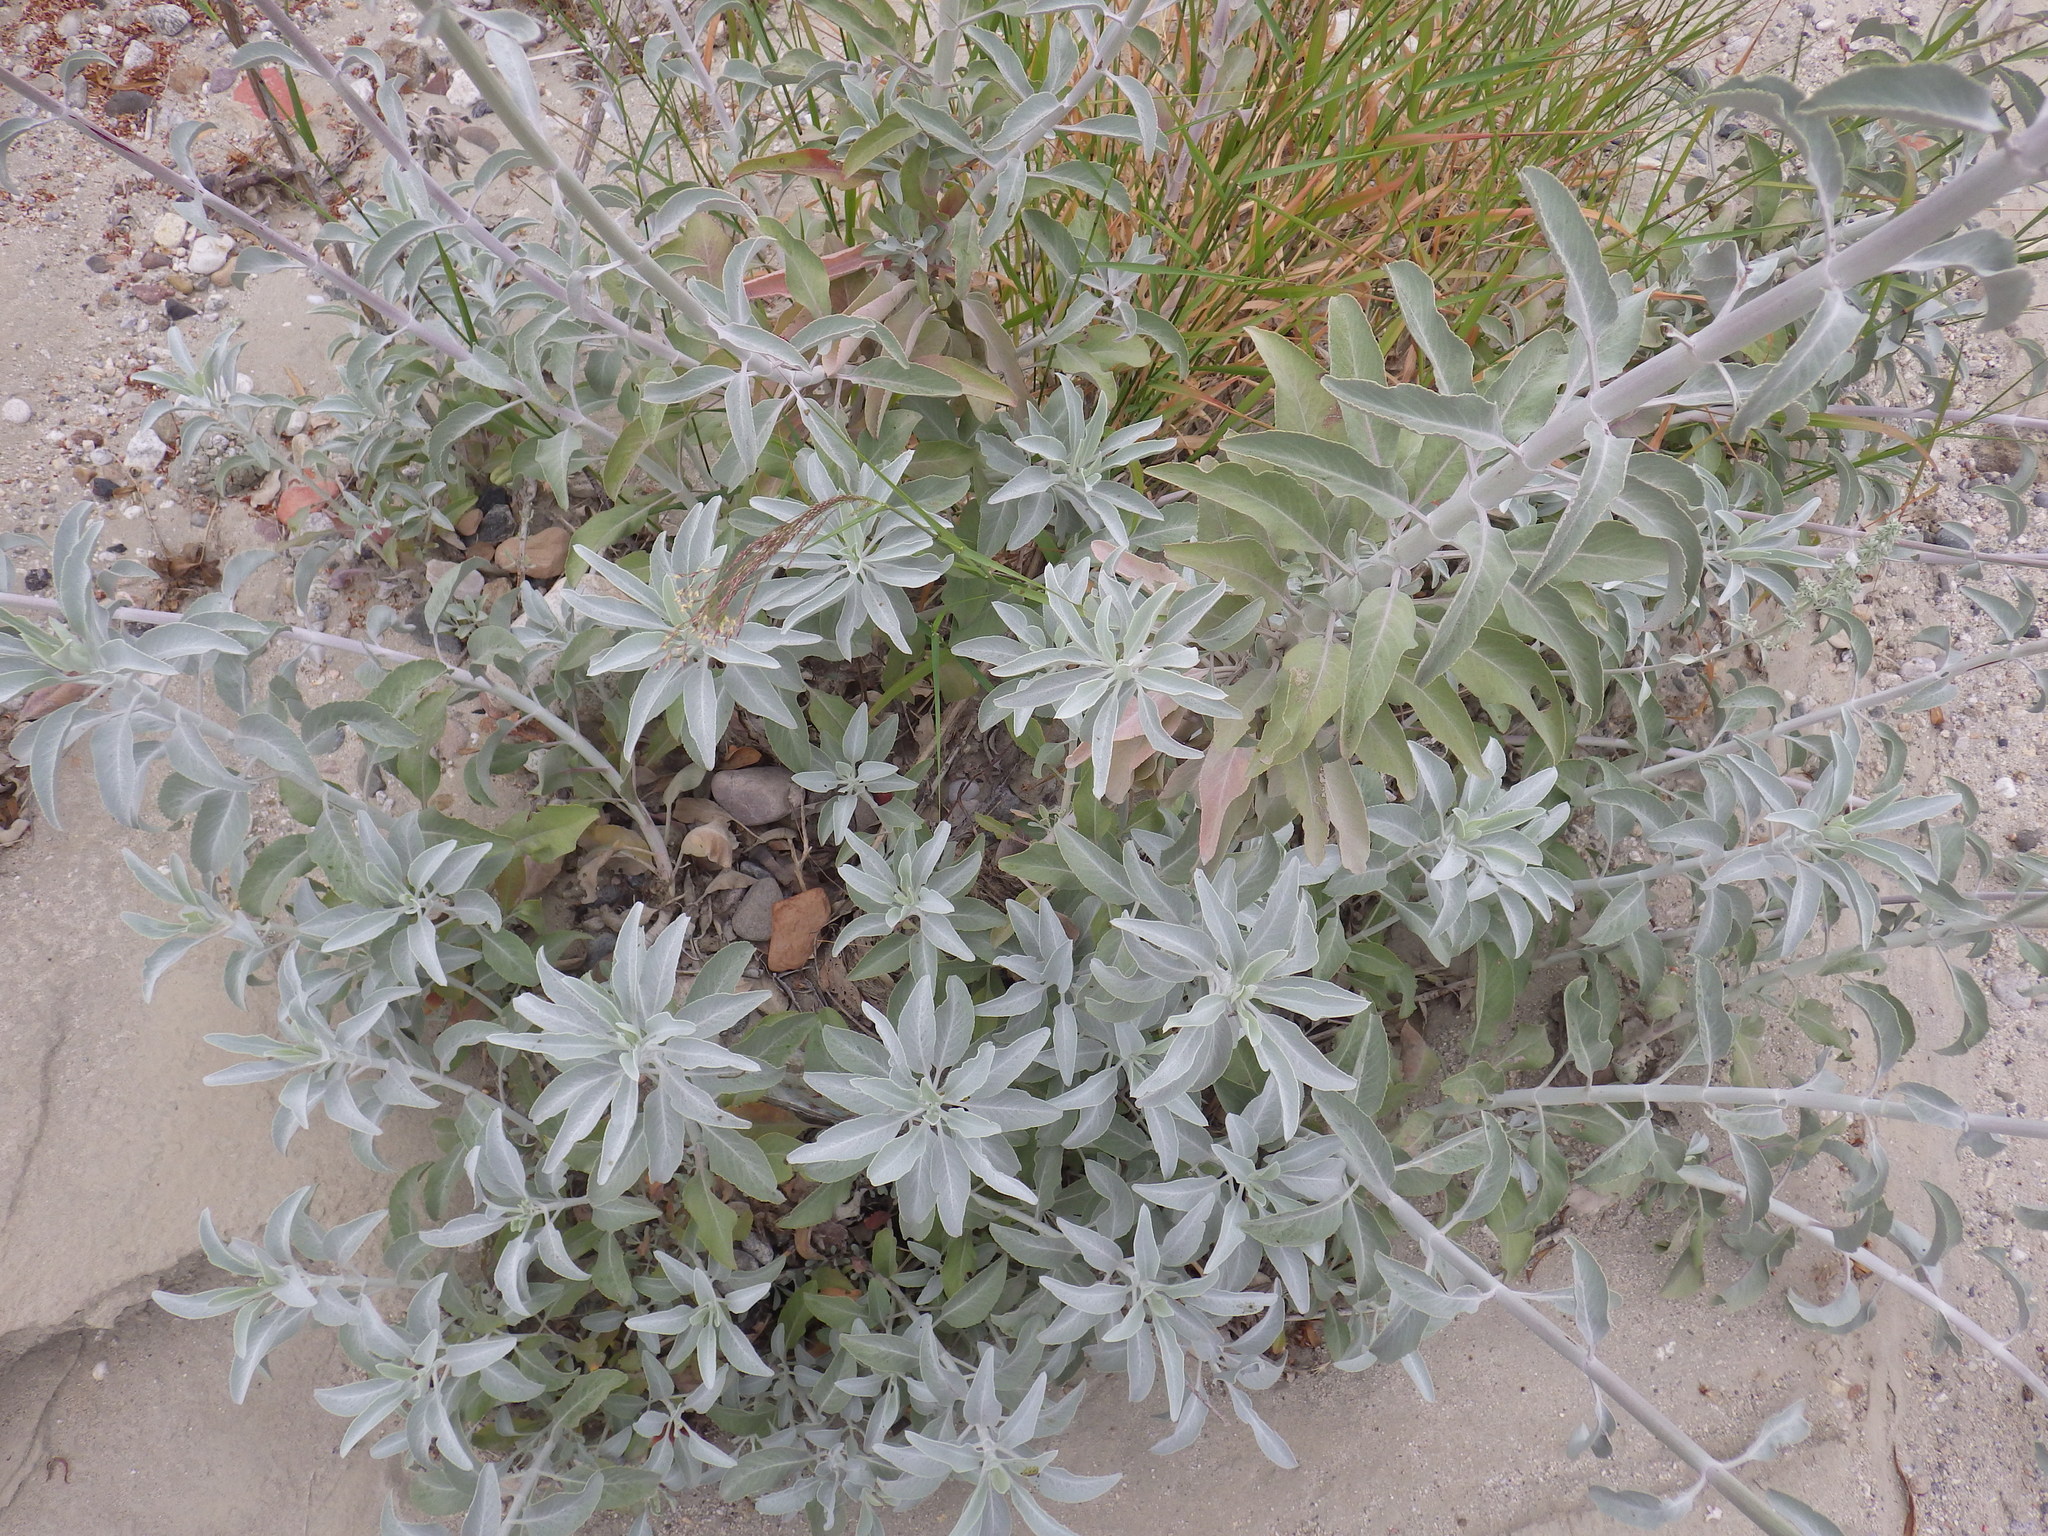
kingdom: Plantae
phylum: Tracheophyta
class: Magnoliopsida
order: Lamiales
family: Lamiaceae
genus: Salvia
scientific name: Salvia apiana
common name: White sage
